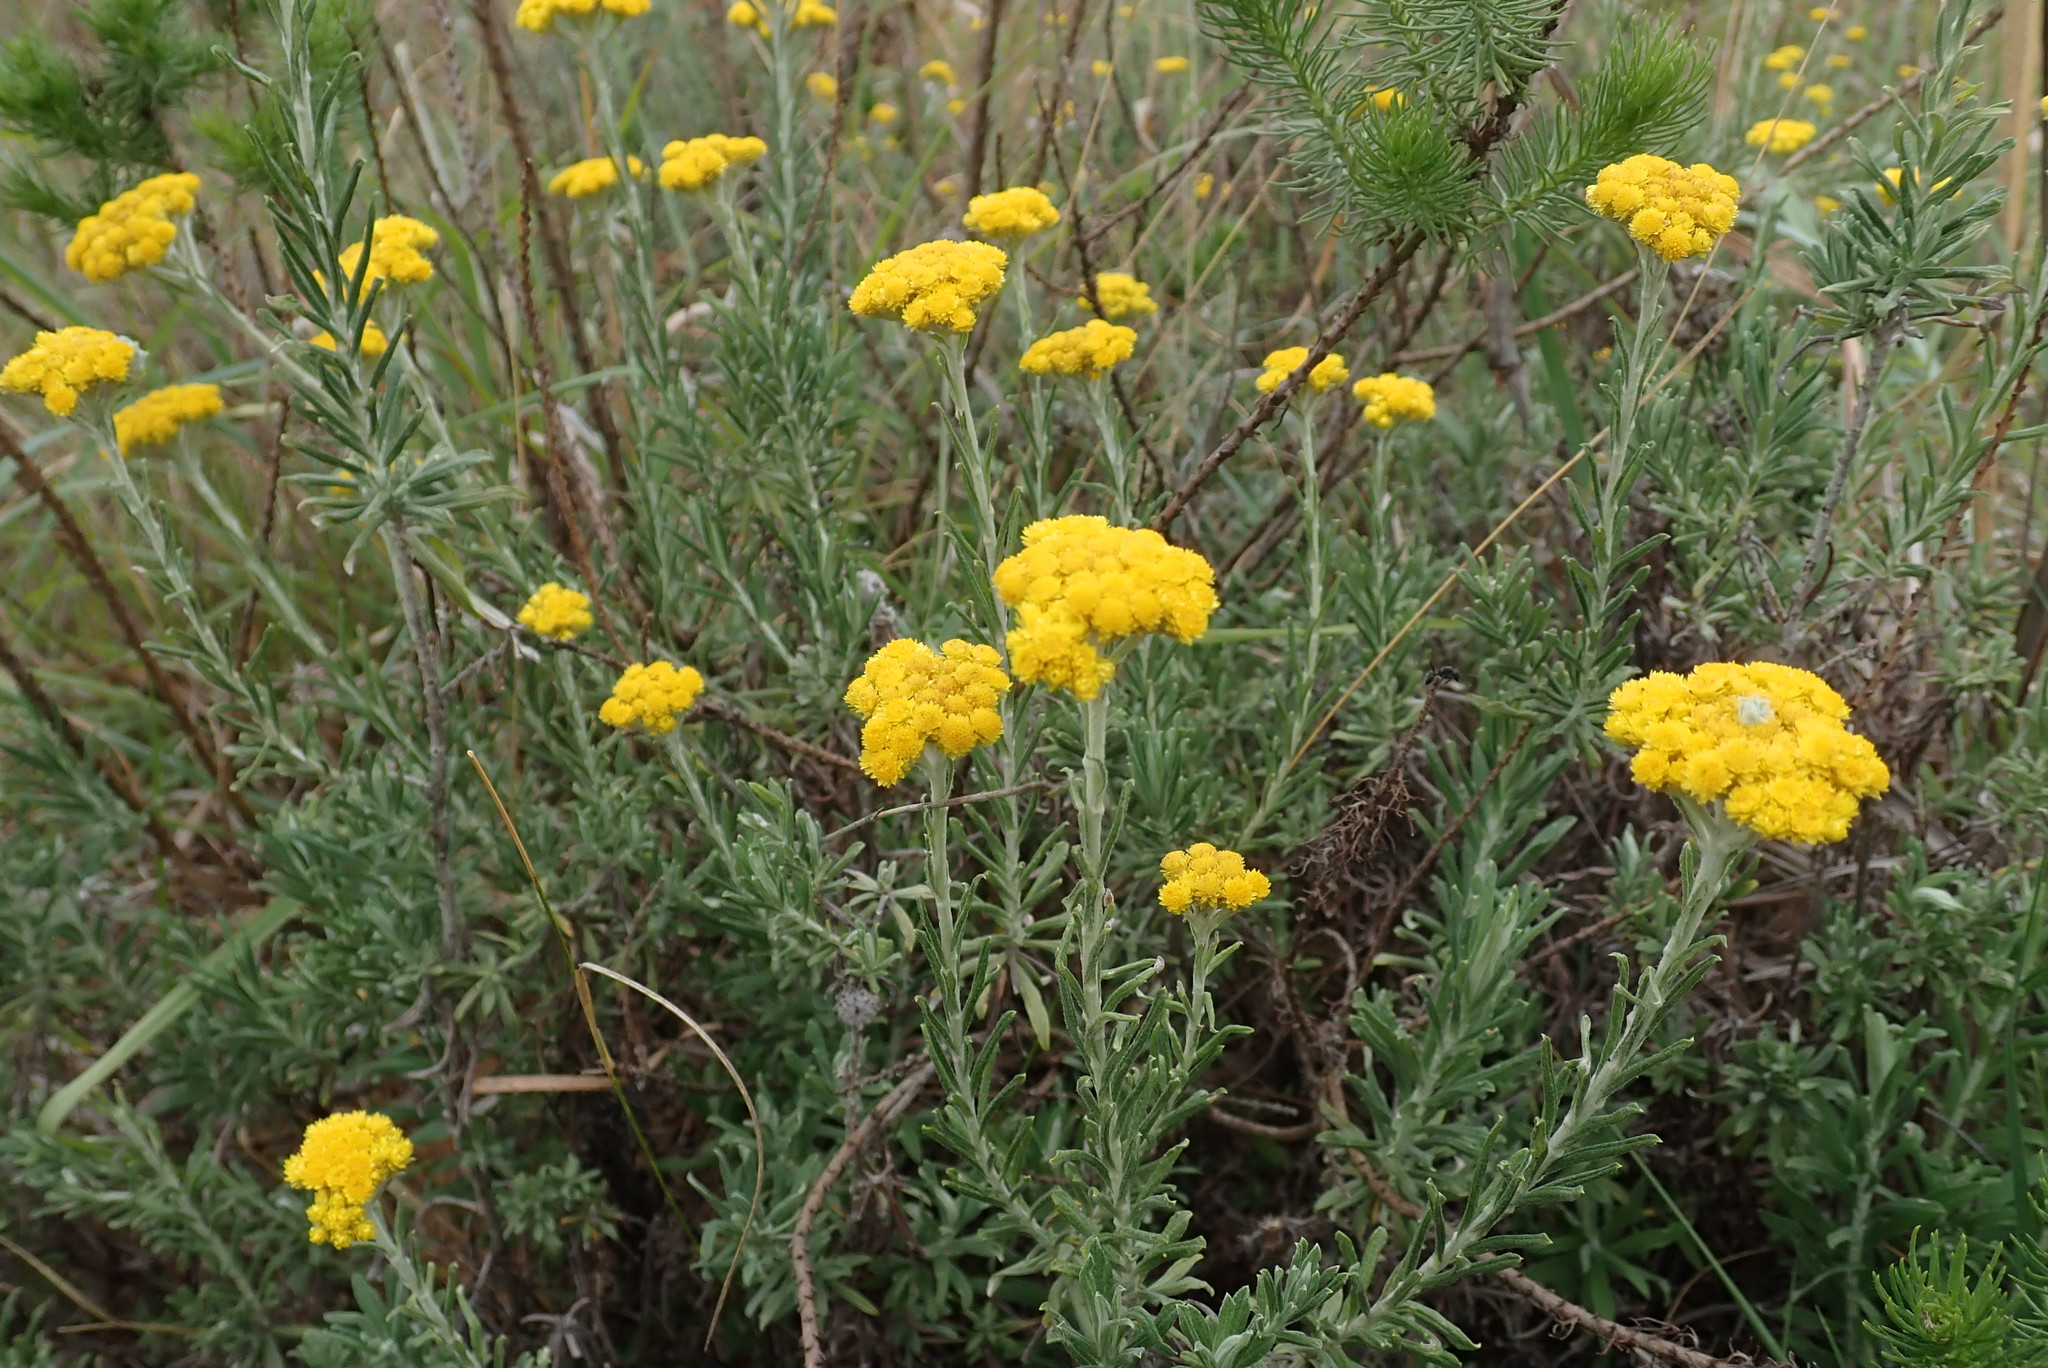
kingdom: Plantae
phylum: Tracheophyta
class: Magnoliopsida
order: Asterales
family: Asteraceae
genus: Helichrysum
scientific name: Helichrysum splendidum
